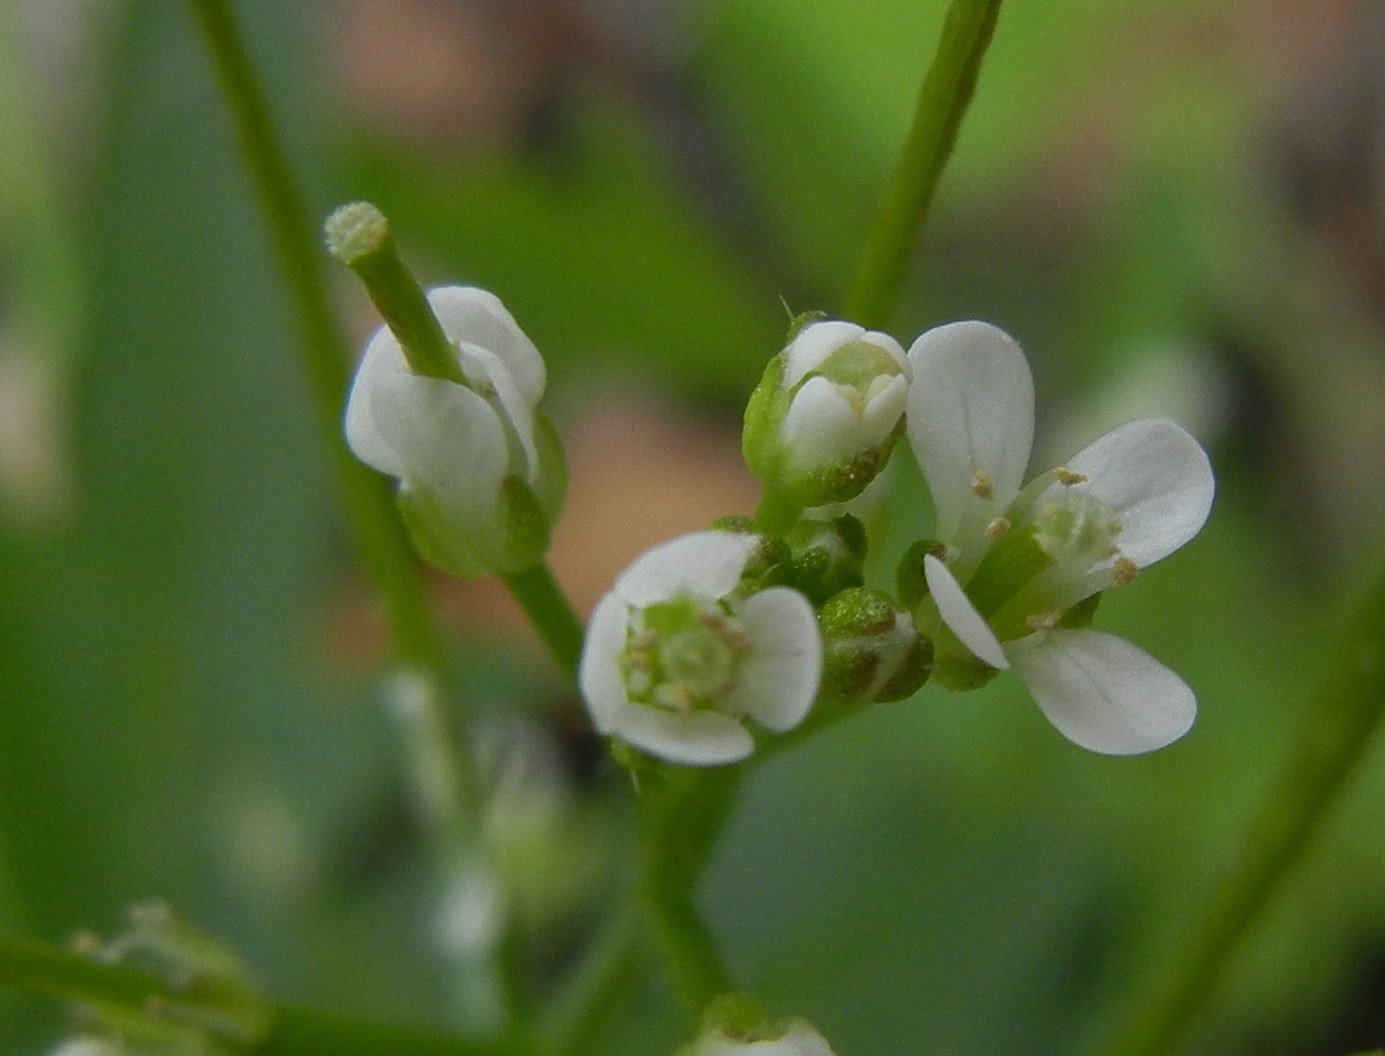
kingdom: Plantae
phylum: Tracheophyta
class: Magnoliopsida
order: Brassicales
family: Brassicaceae
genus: Cardamine
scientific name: Cardamine flexuosa
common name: Woodland bittercress
